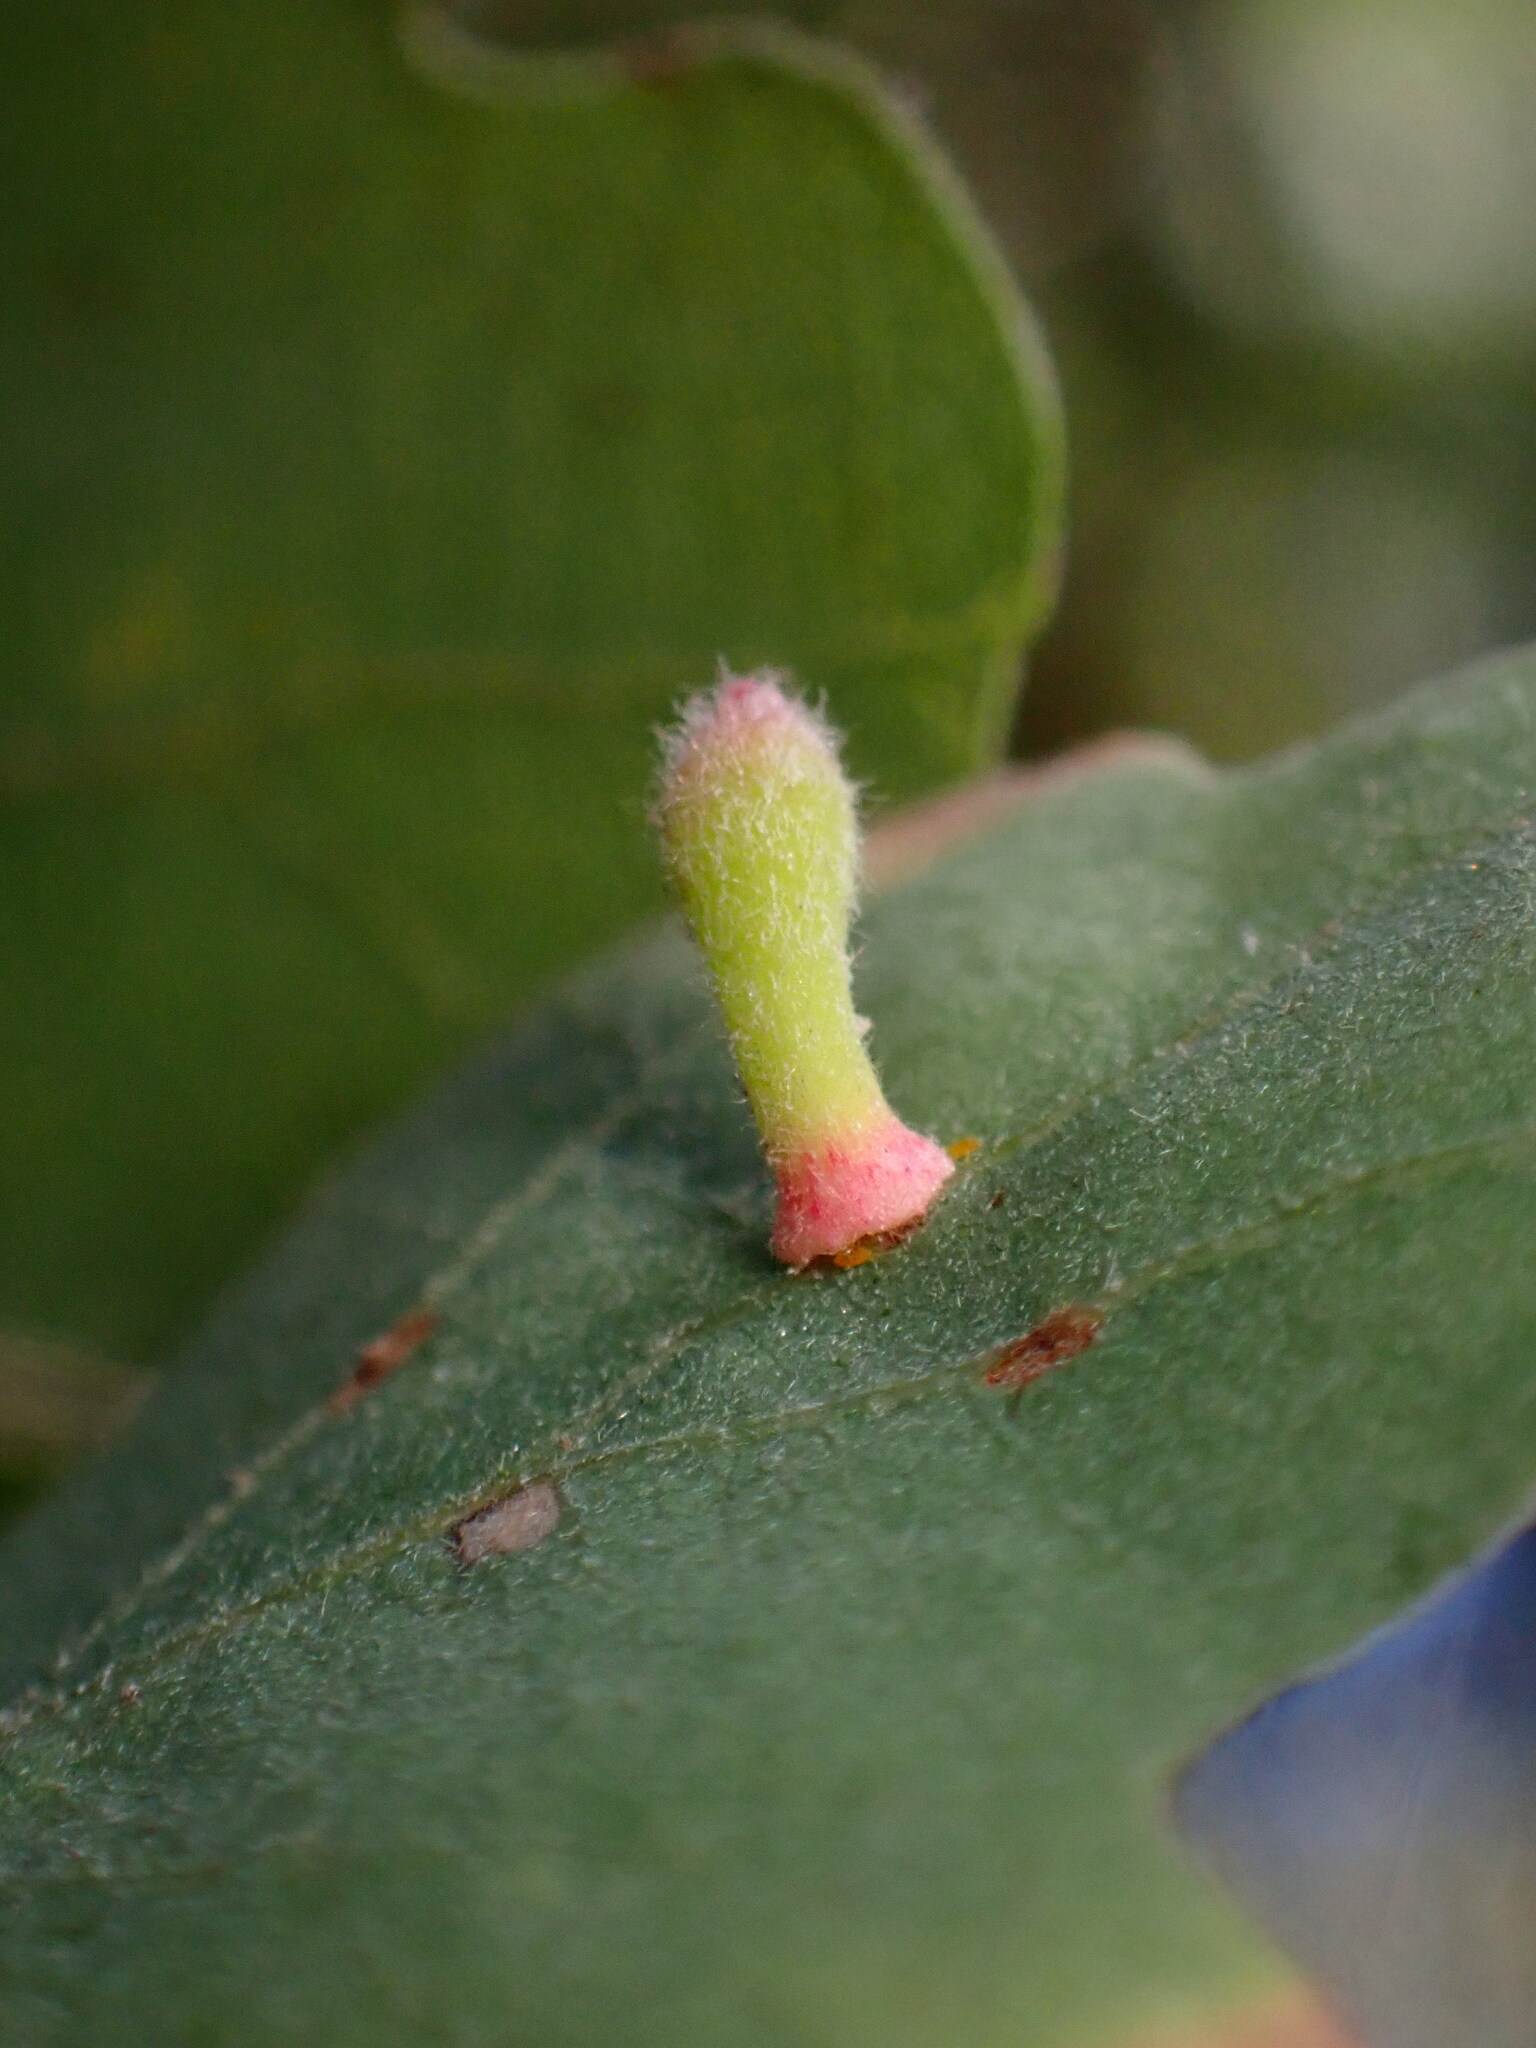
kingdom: Animalia
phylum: Arthropoda
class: Insecta
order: Hymenoptera
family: Cynipidae
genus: Atrusca
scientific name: Atrusca
